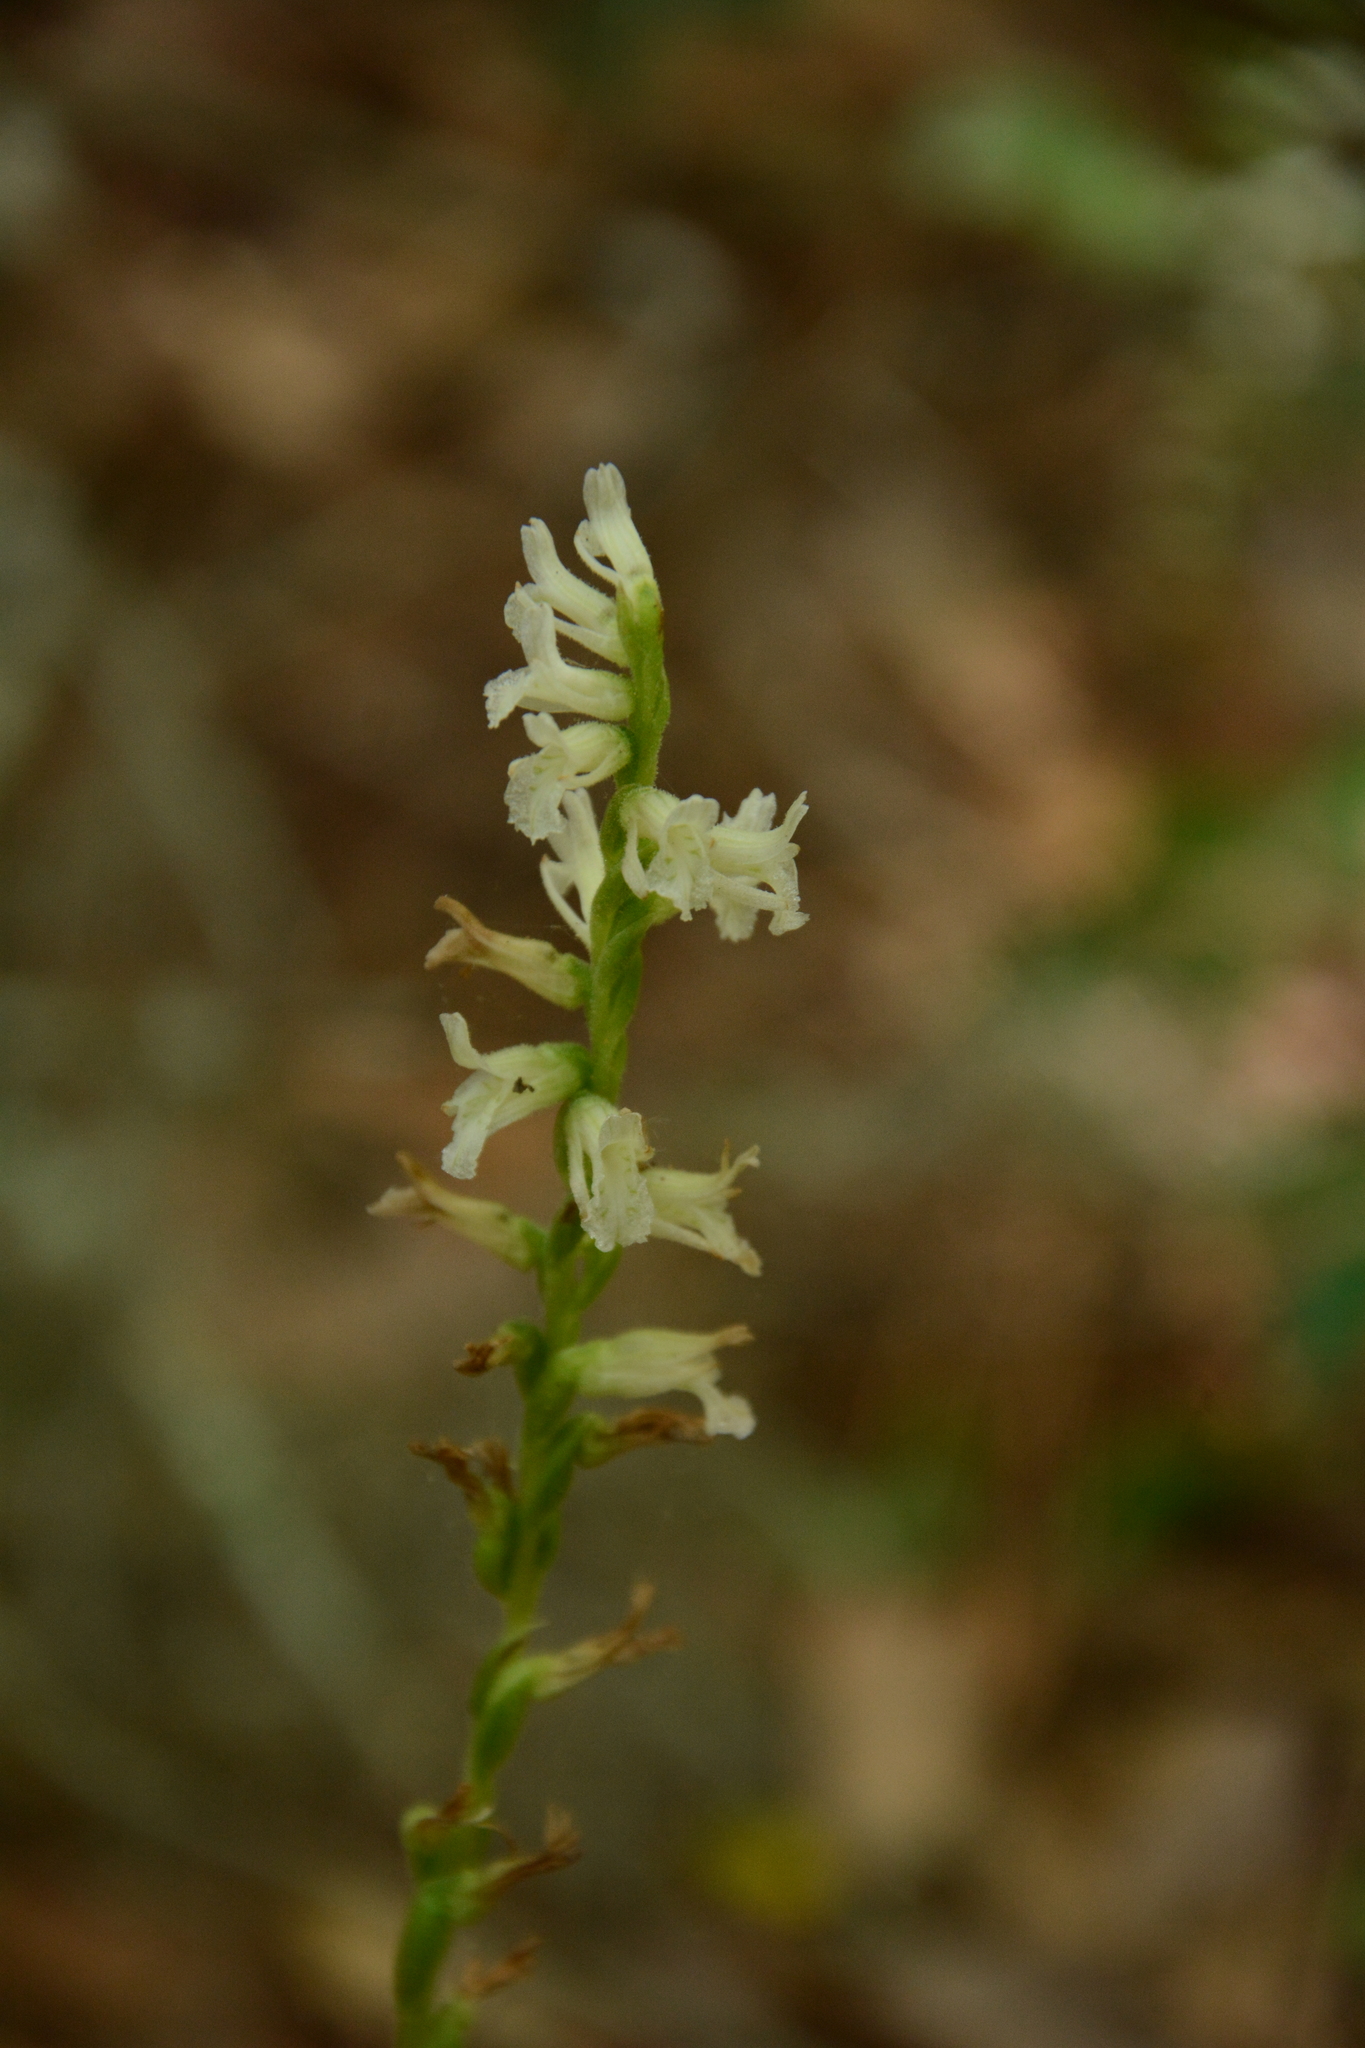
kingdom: Plantae
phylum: Tracheophyta
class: Liliopsida
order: Asparagales
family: Orchidaceae
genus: Spiranthes
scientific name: Spiranthes praecox
